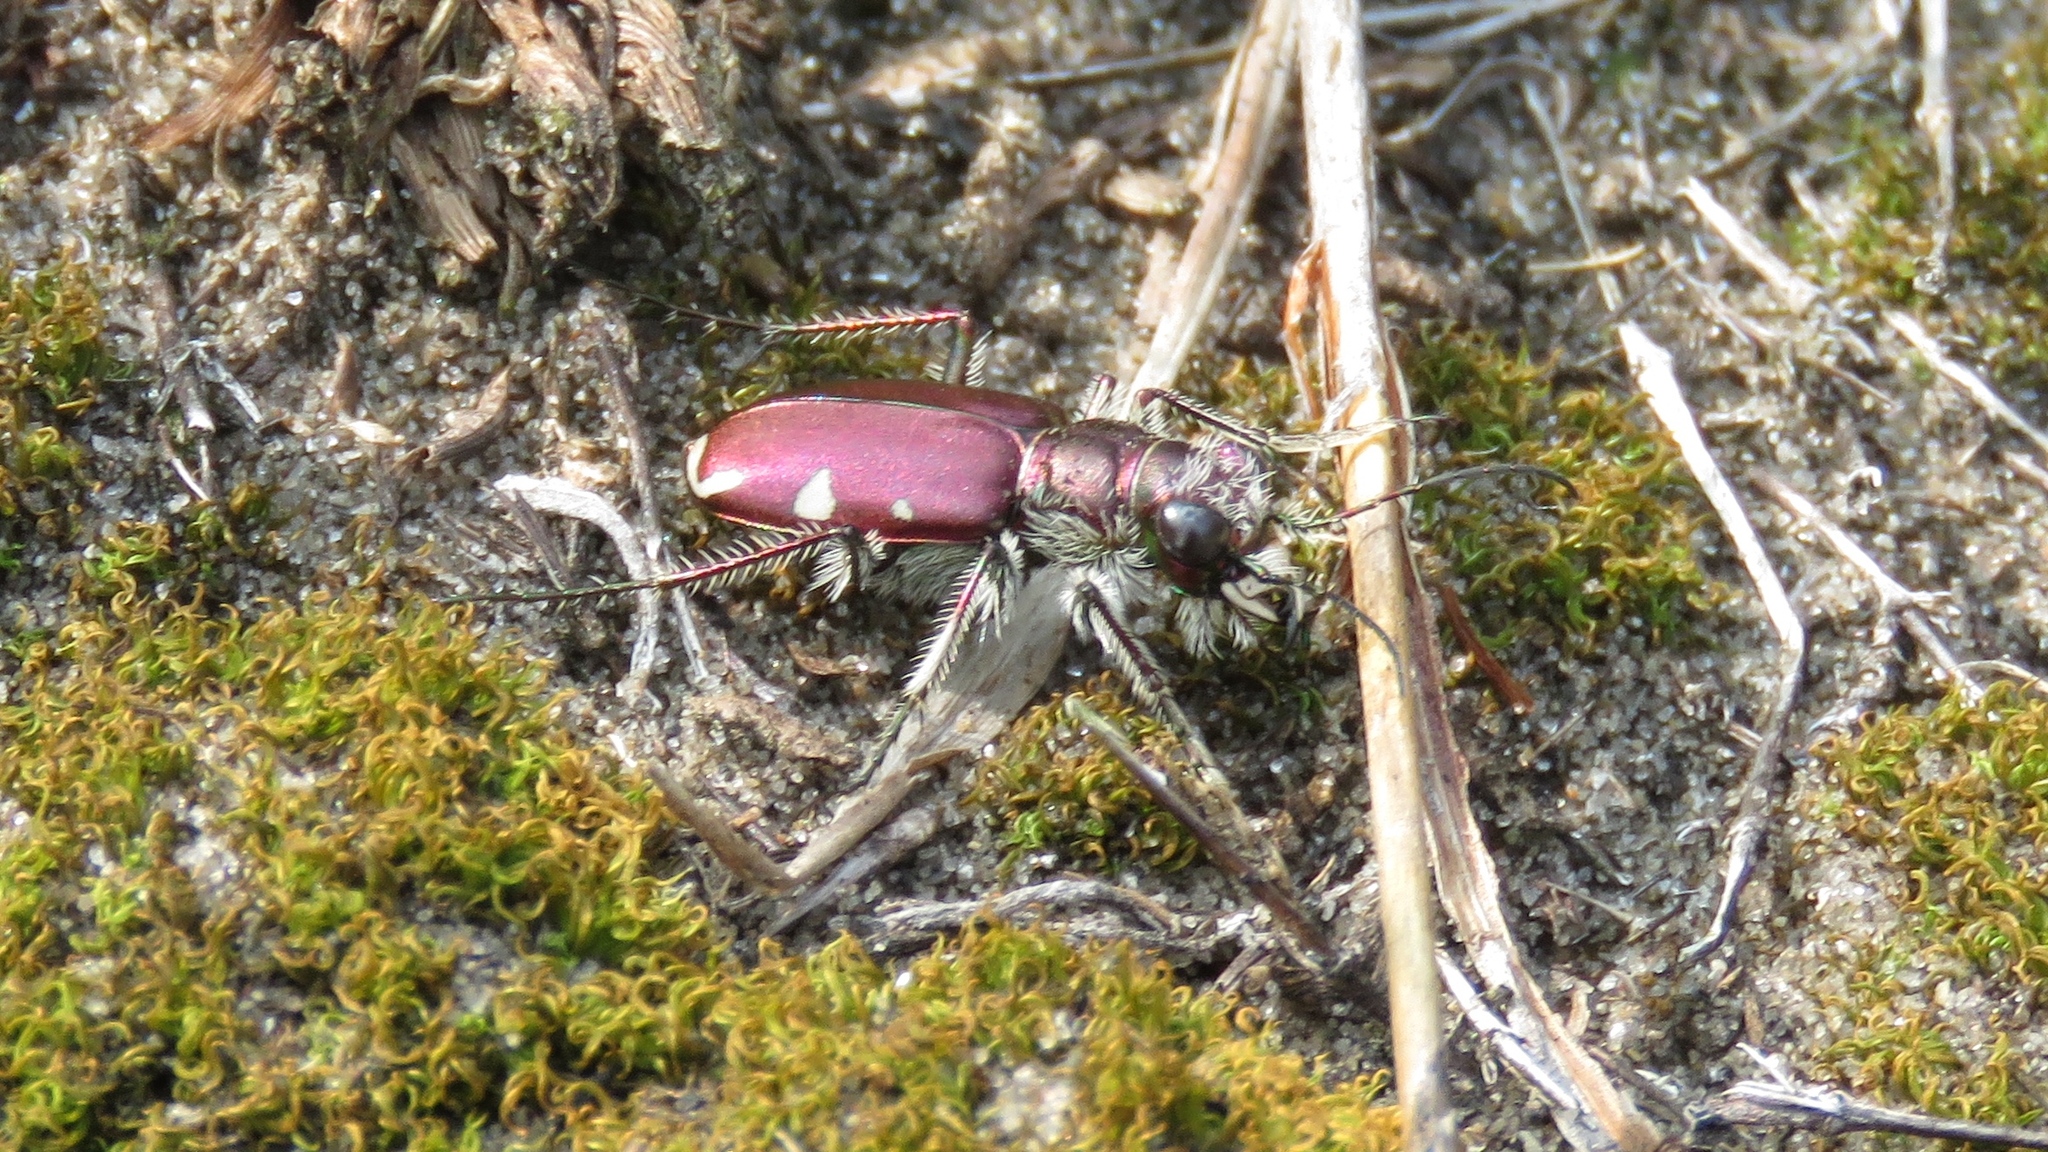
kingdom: Animalia
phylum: Arthropoda
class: Insecta
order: Coleoptera
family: Carabidae
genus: Cicindela
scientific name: Cicindela scutellaris
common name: Festive tiger beetle
